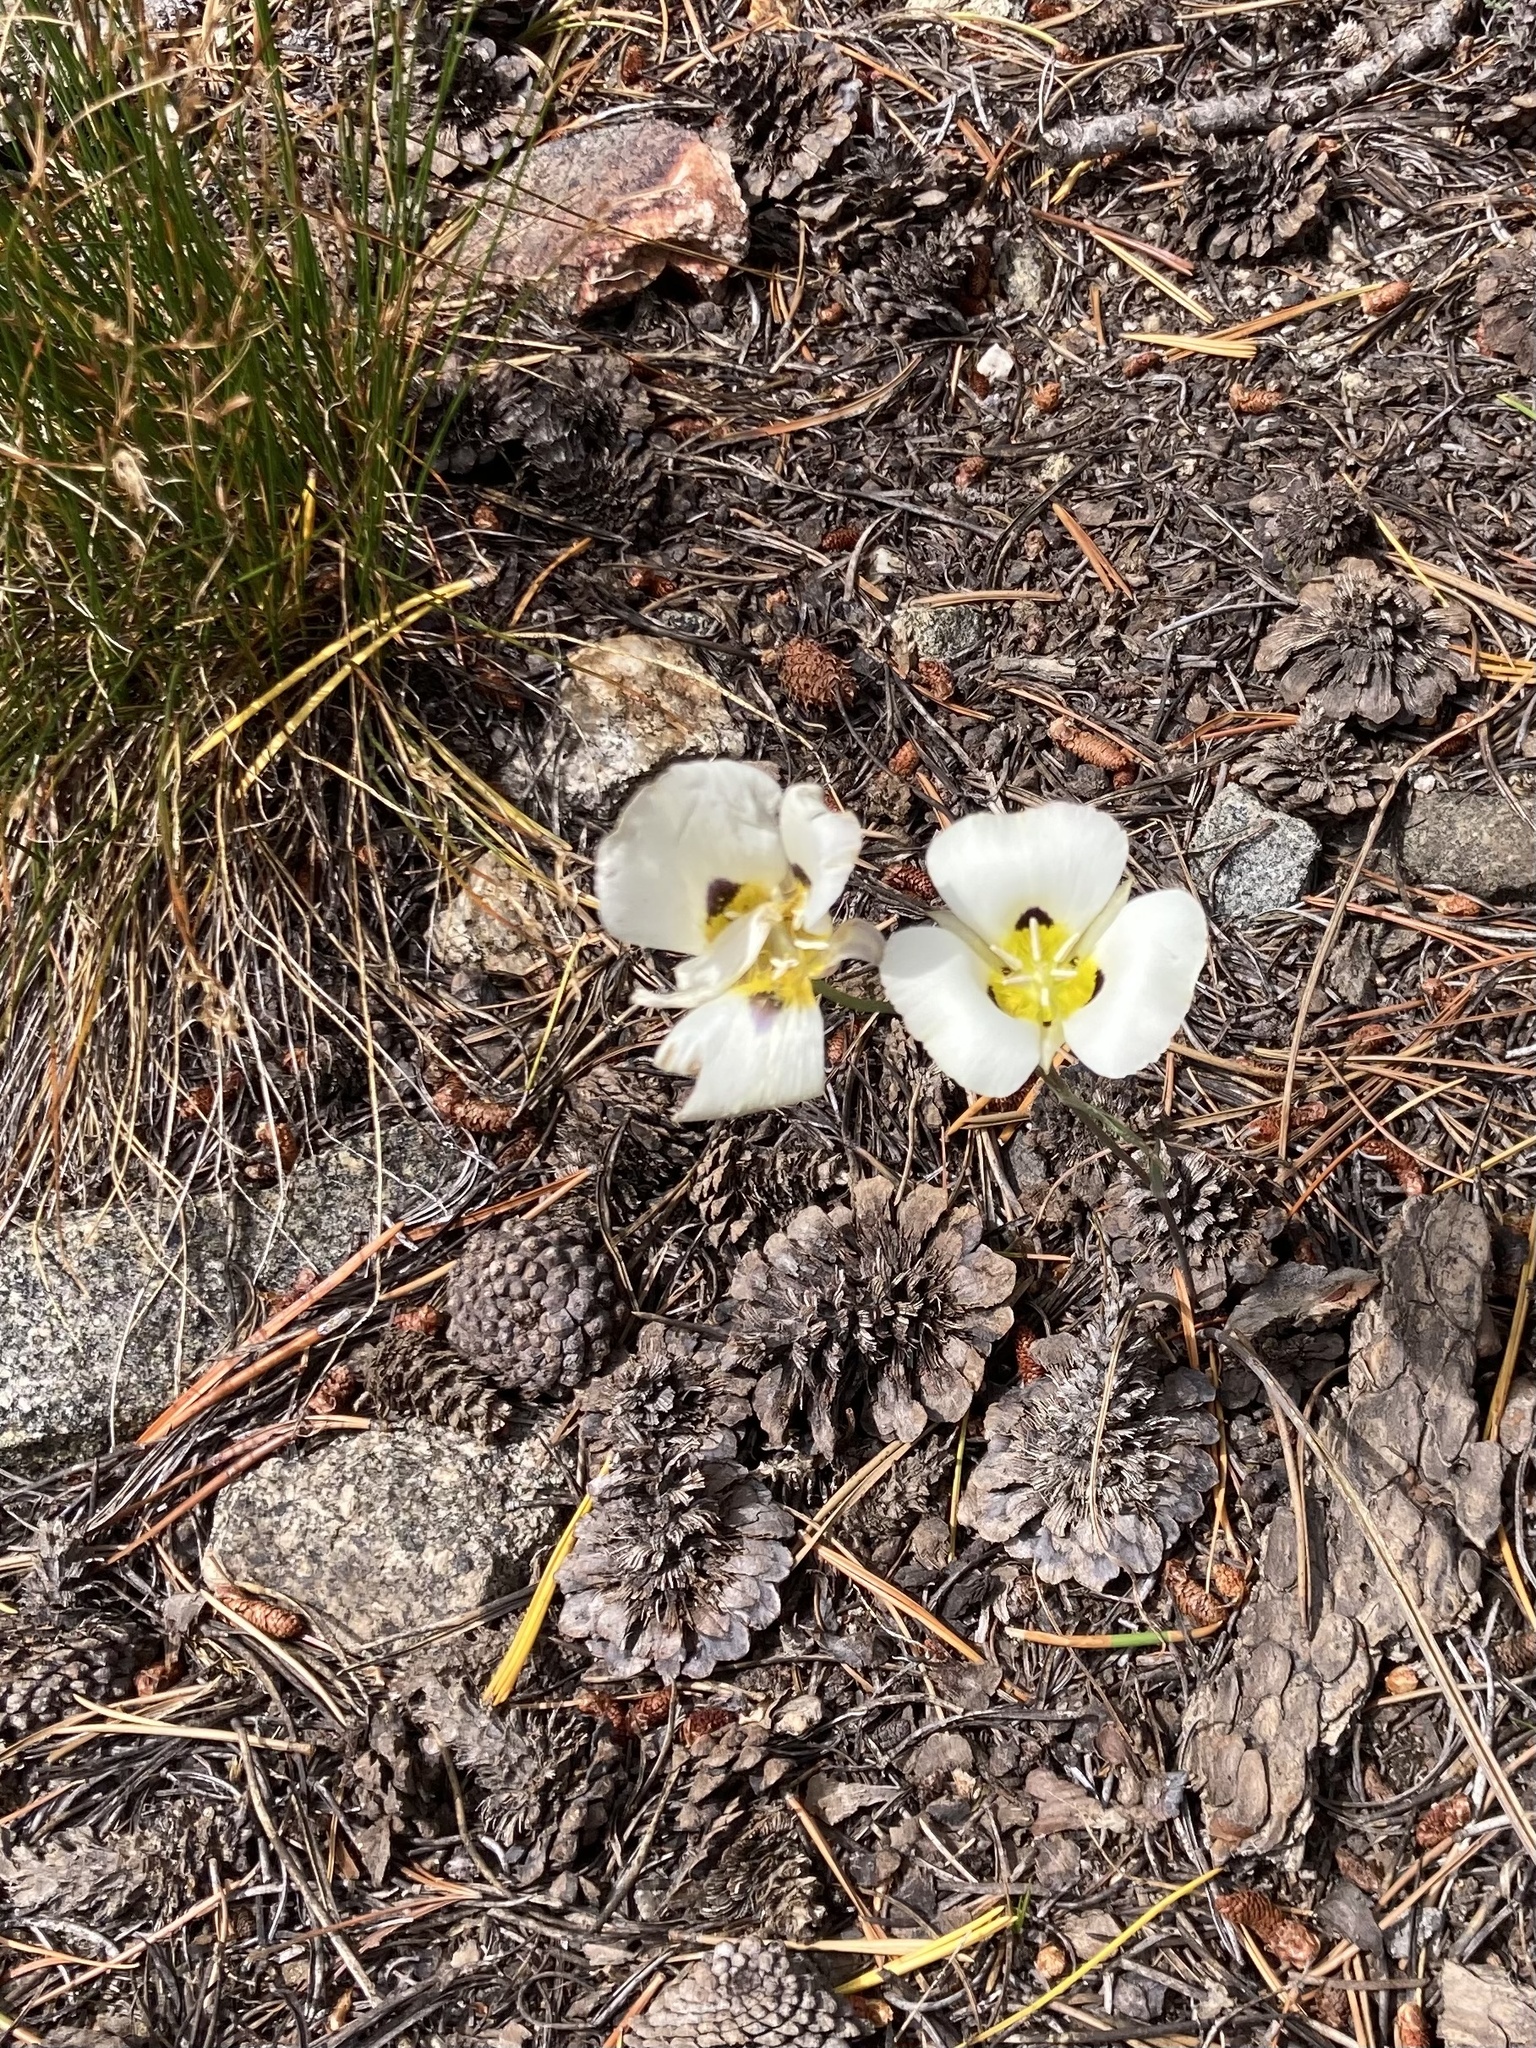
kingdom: Plantae
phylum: Tracheophyta
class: Liliopsida
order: Liliales
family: Liliaceae
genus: Calochortus
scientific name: Calochortus leichtlinii
